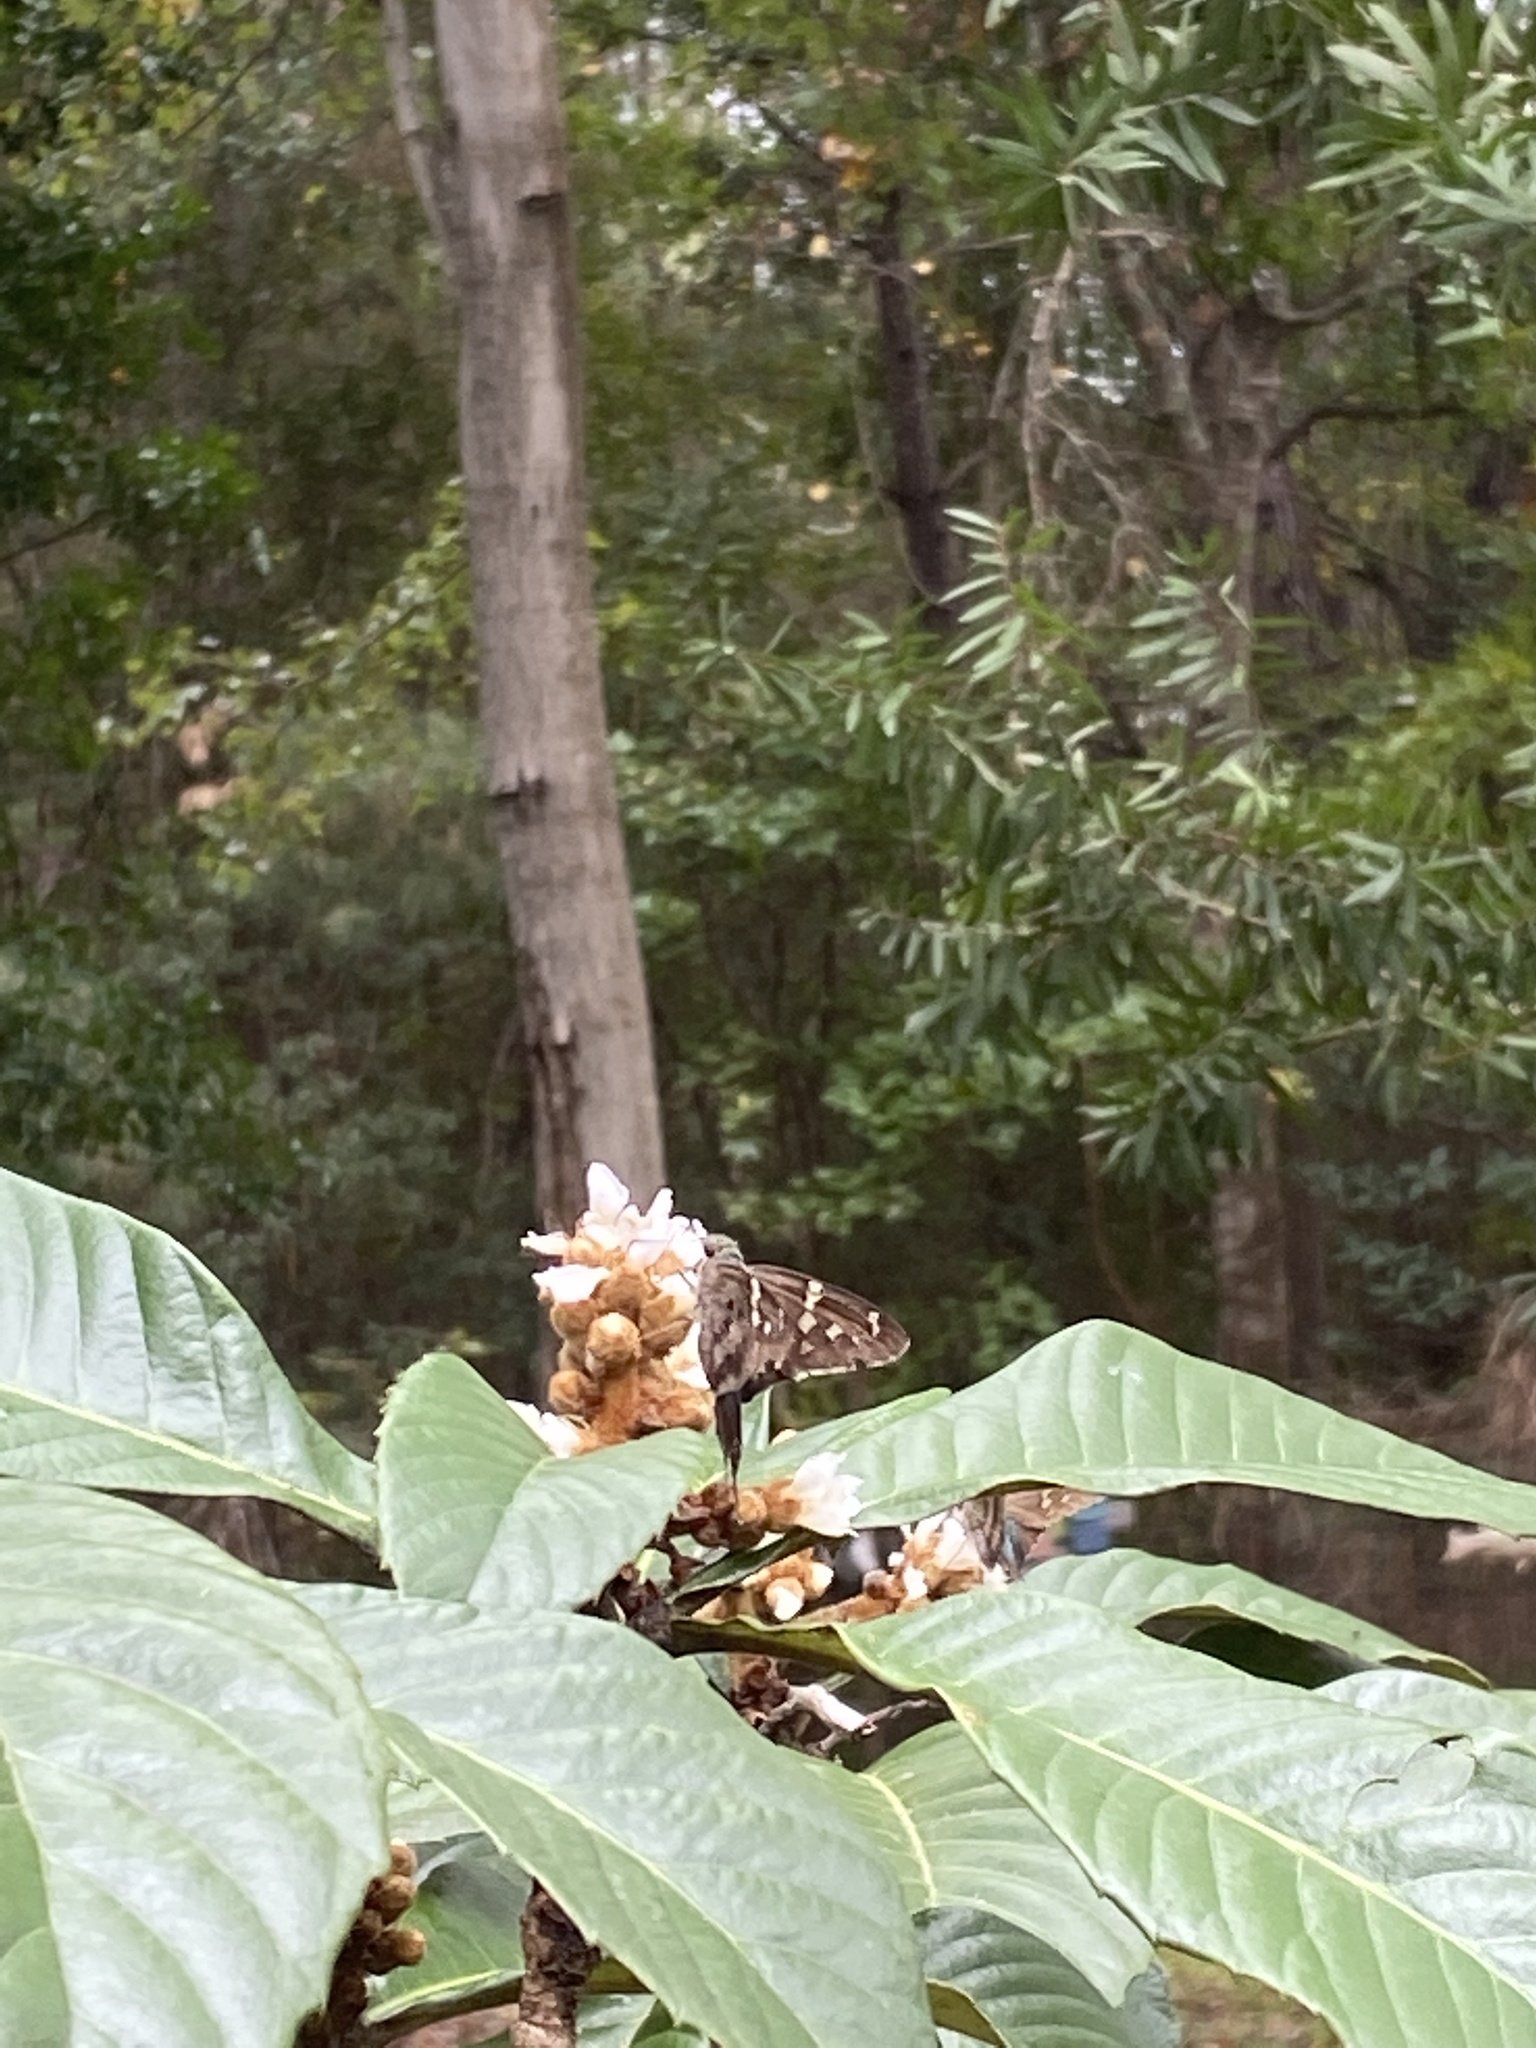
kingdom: Animalia
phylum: Arthropoda
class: Insecta
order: Lepidoptera
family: Hesperiidae
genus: Urbanus
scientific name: Urbanus proteus
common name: Long-tailed skipper
